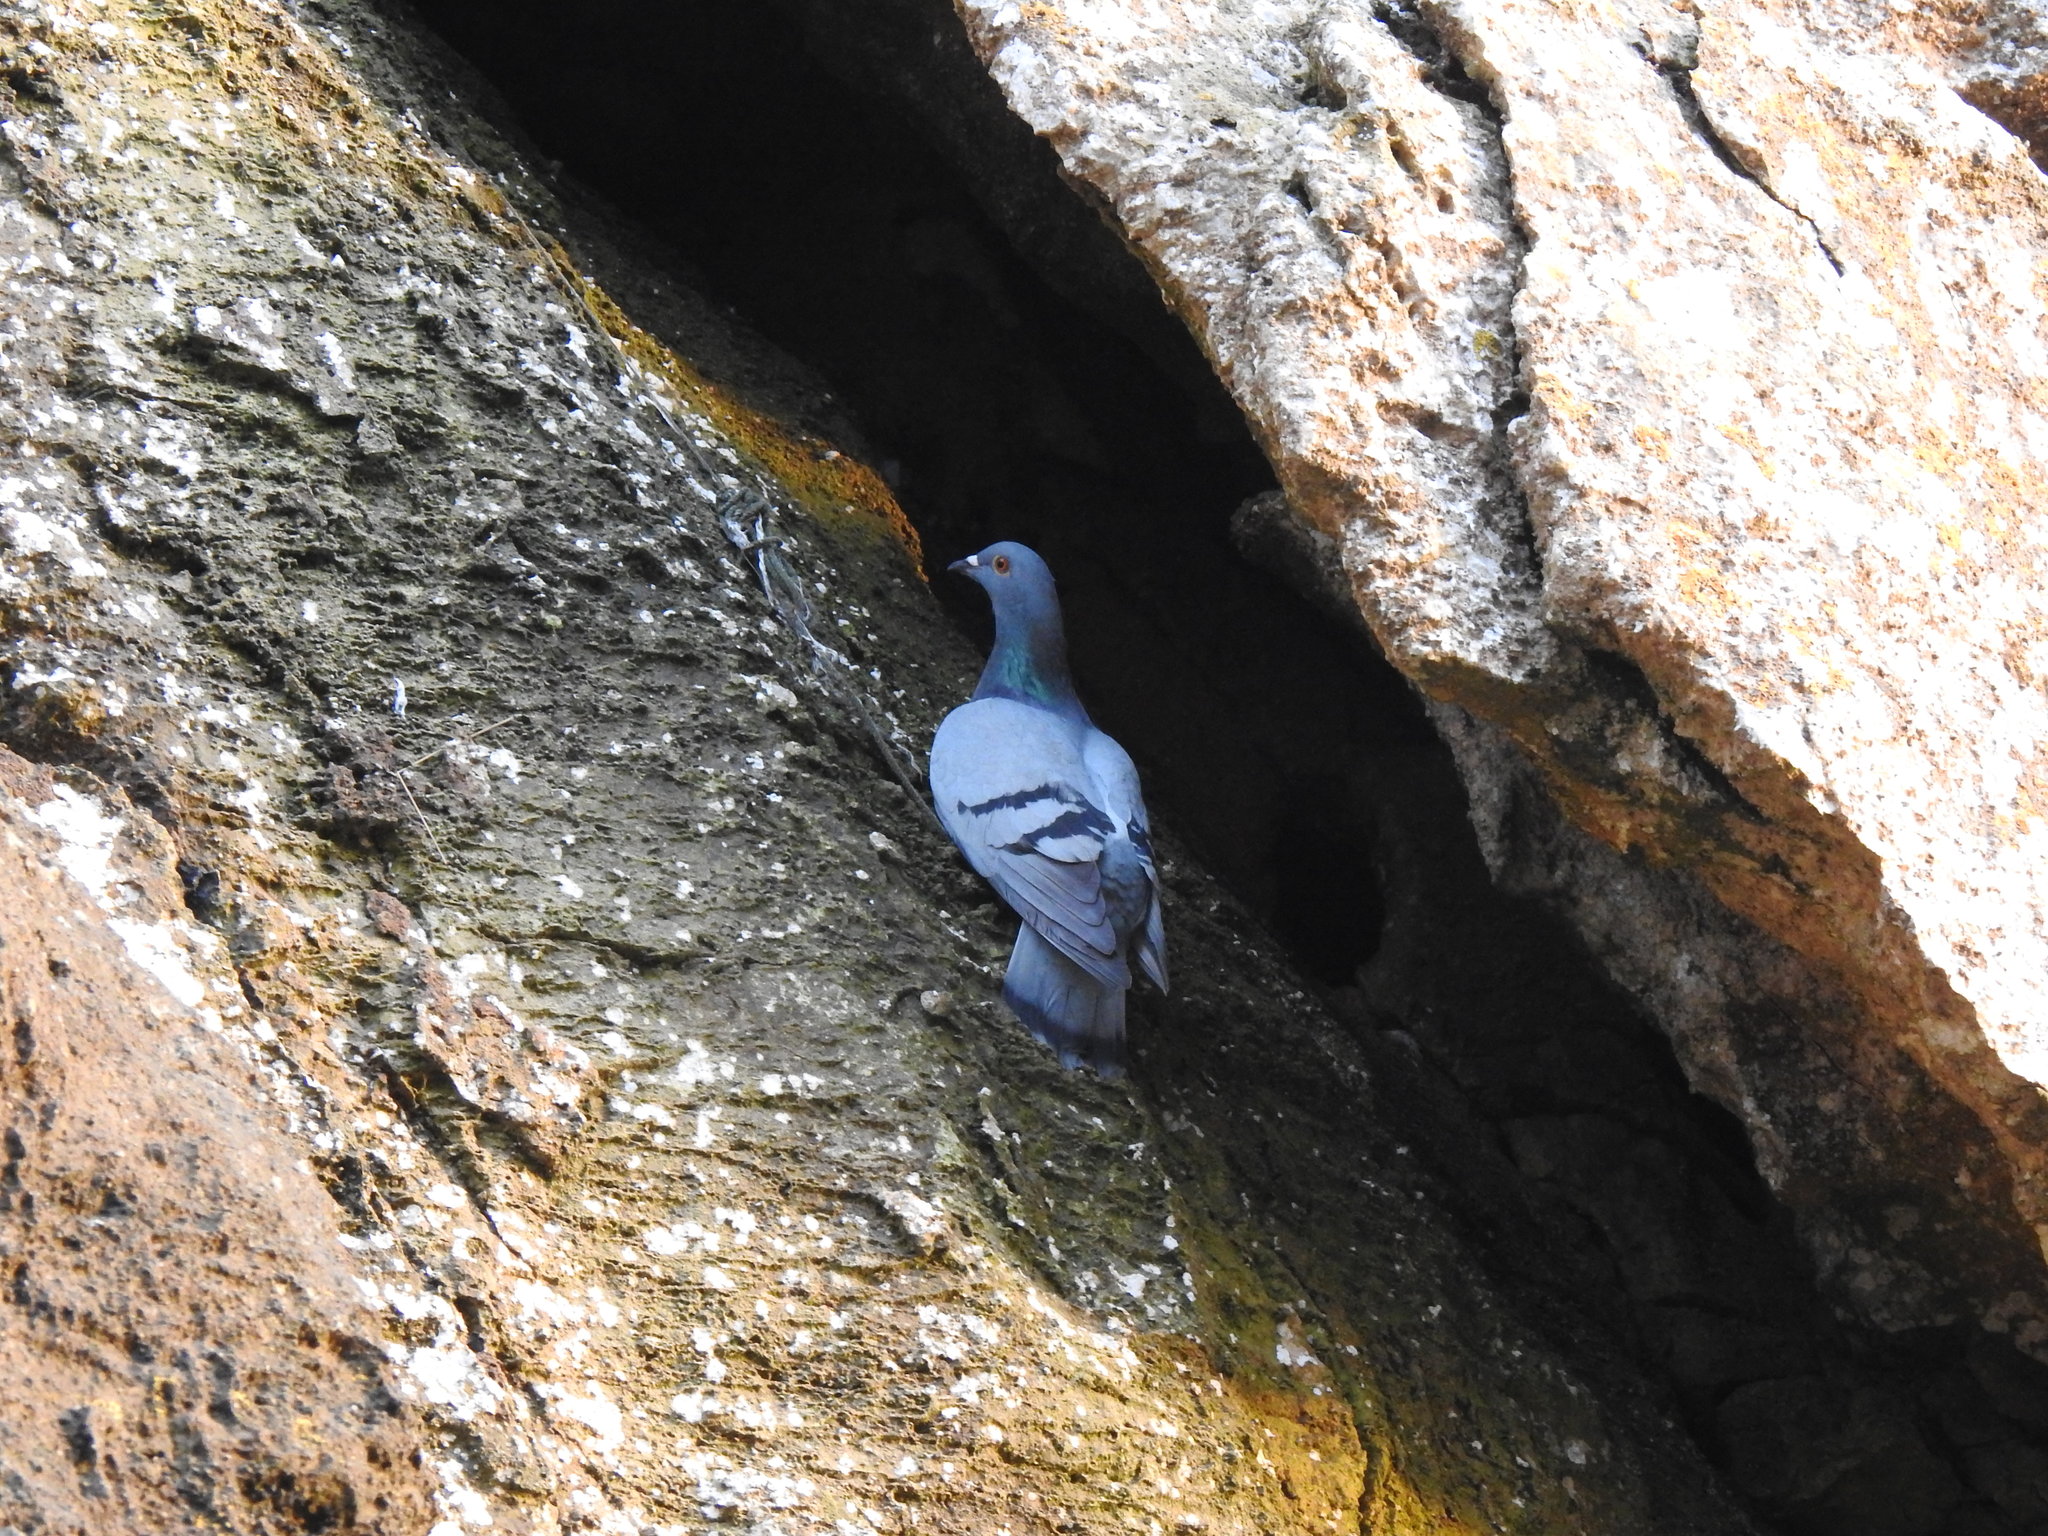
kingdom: Animalia
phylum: Chordata
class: Aves
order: Columbiformes
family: Columbidae
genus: Columba
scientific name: Columba livia
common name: Rock pigeon
